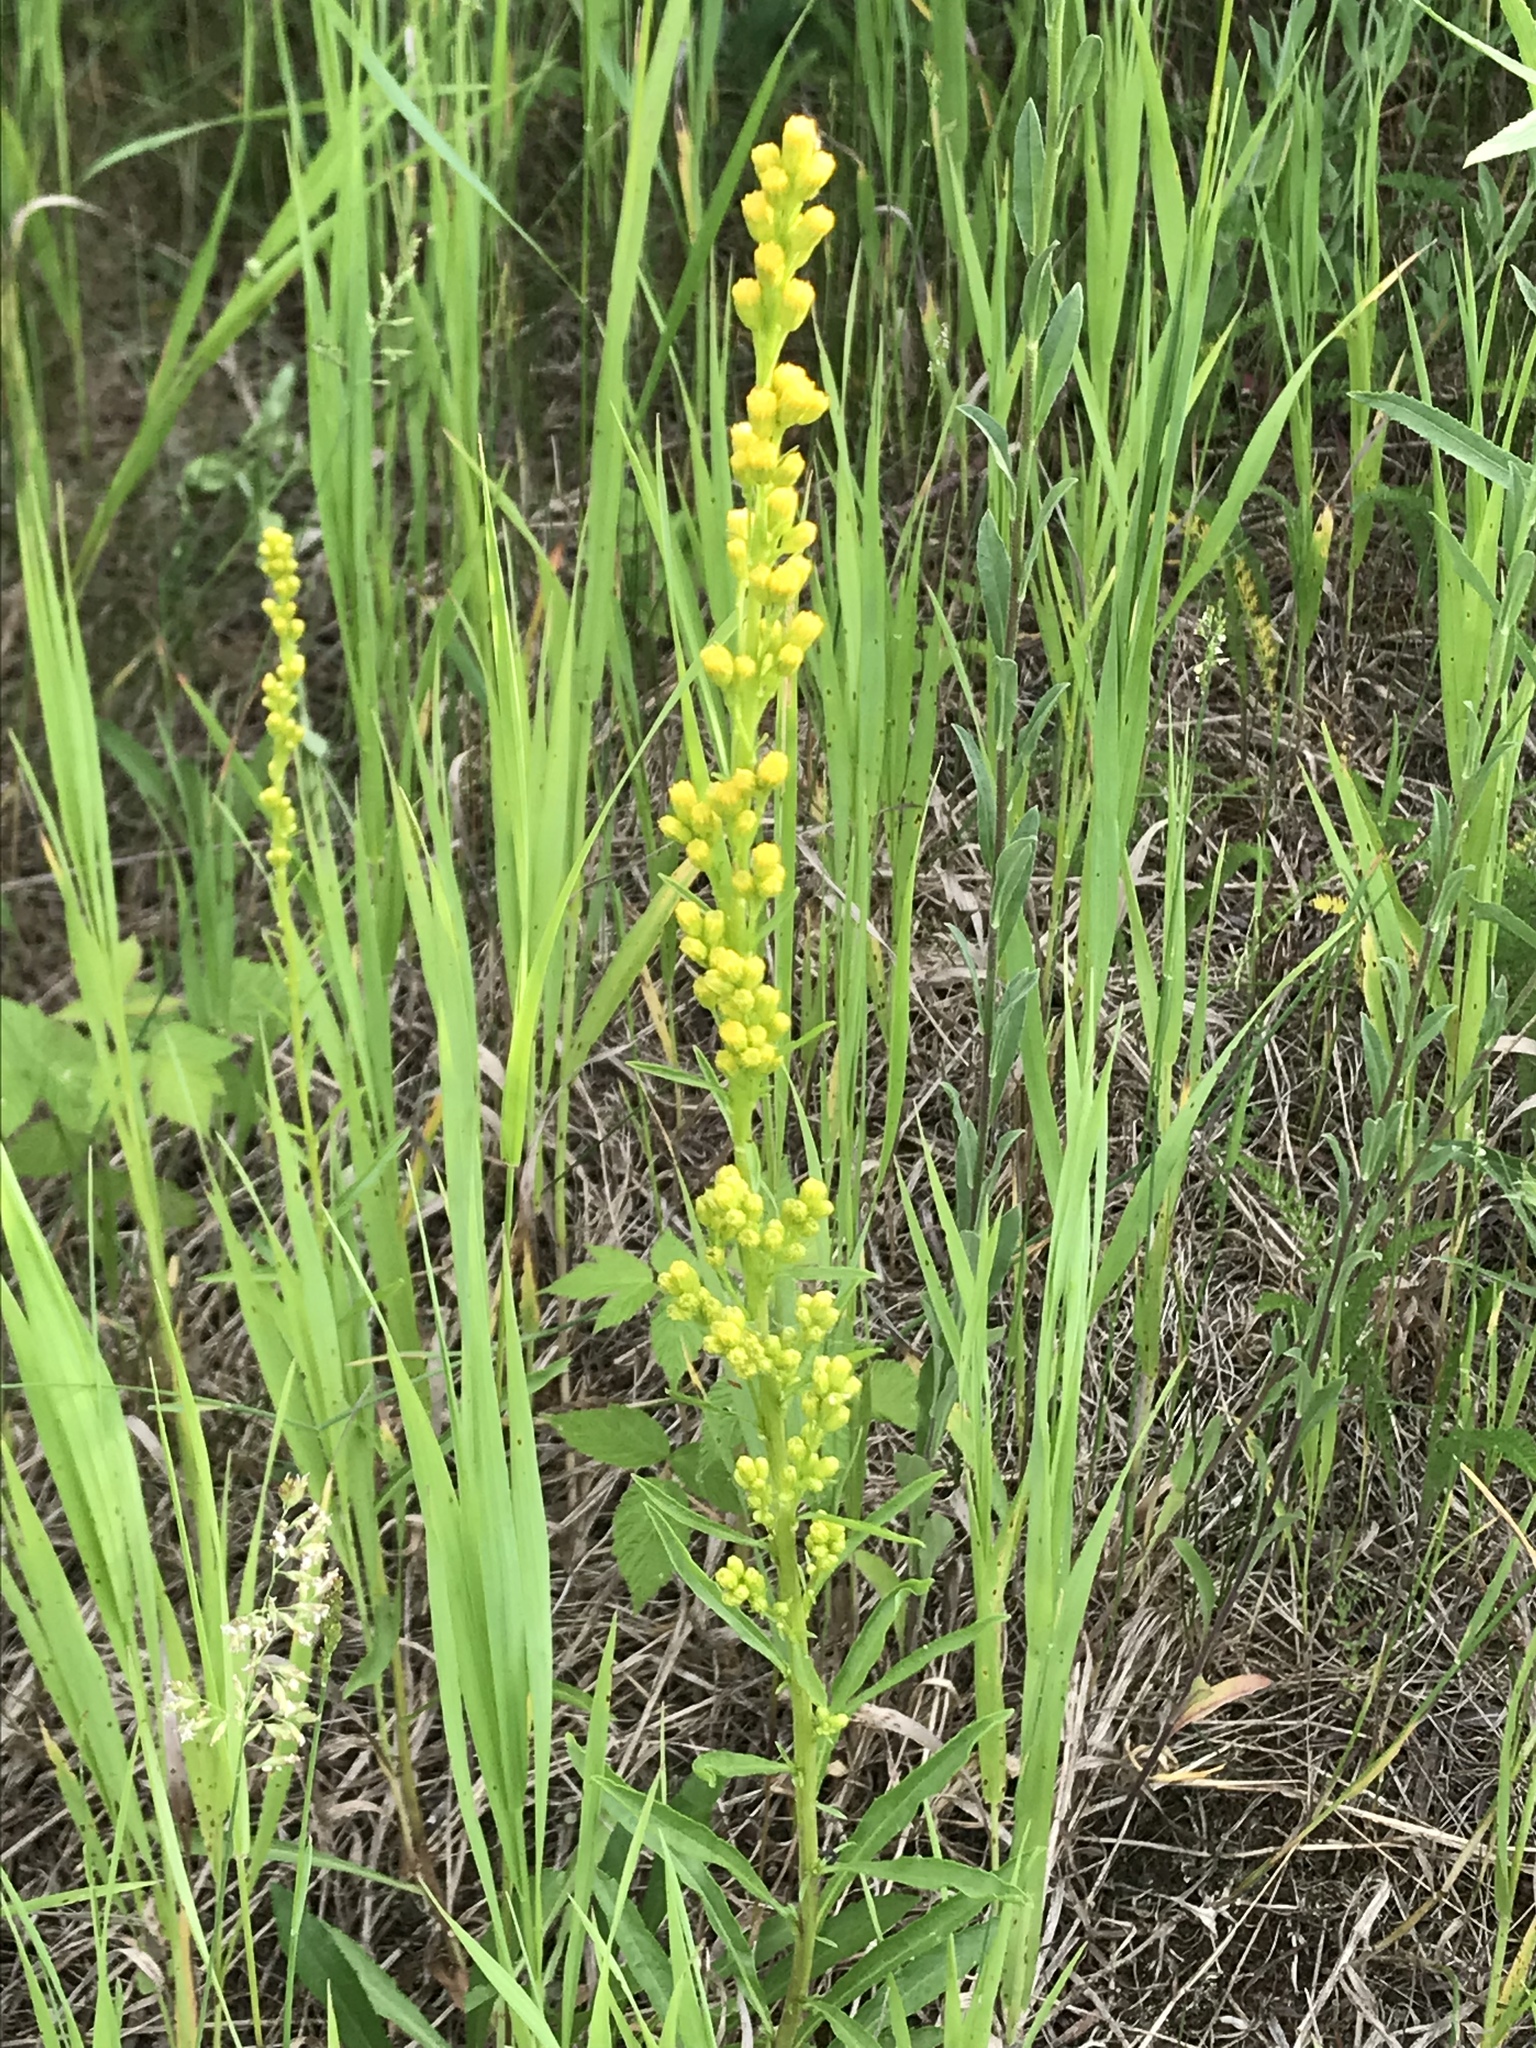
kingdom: Plantae
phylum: Tracheophyta
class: Magnoliopsida
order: Asterales
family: Asteraceae
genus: Solidago
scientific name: Solidago uliginosa
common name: Bog goldenrod
